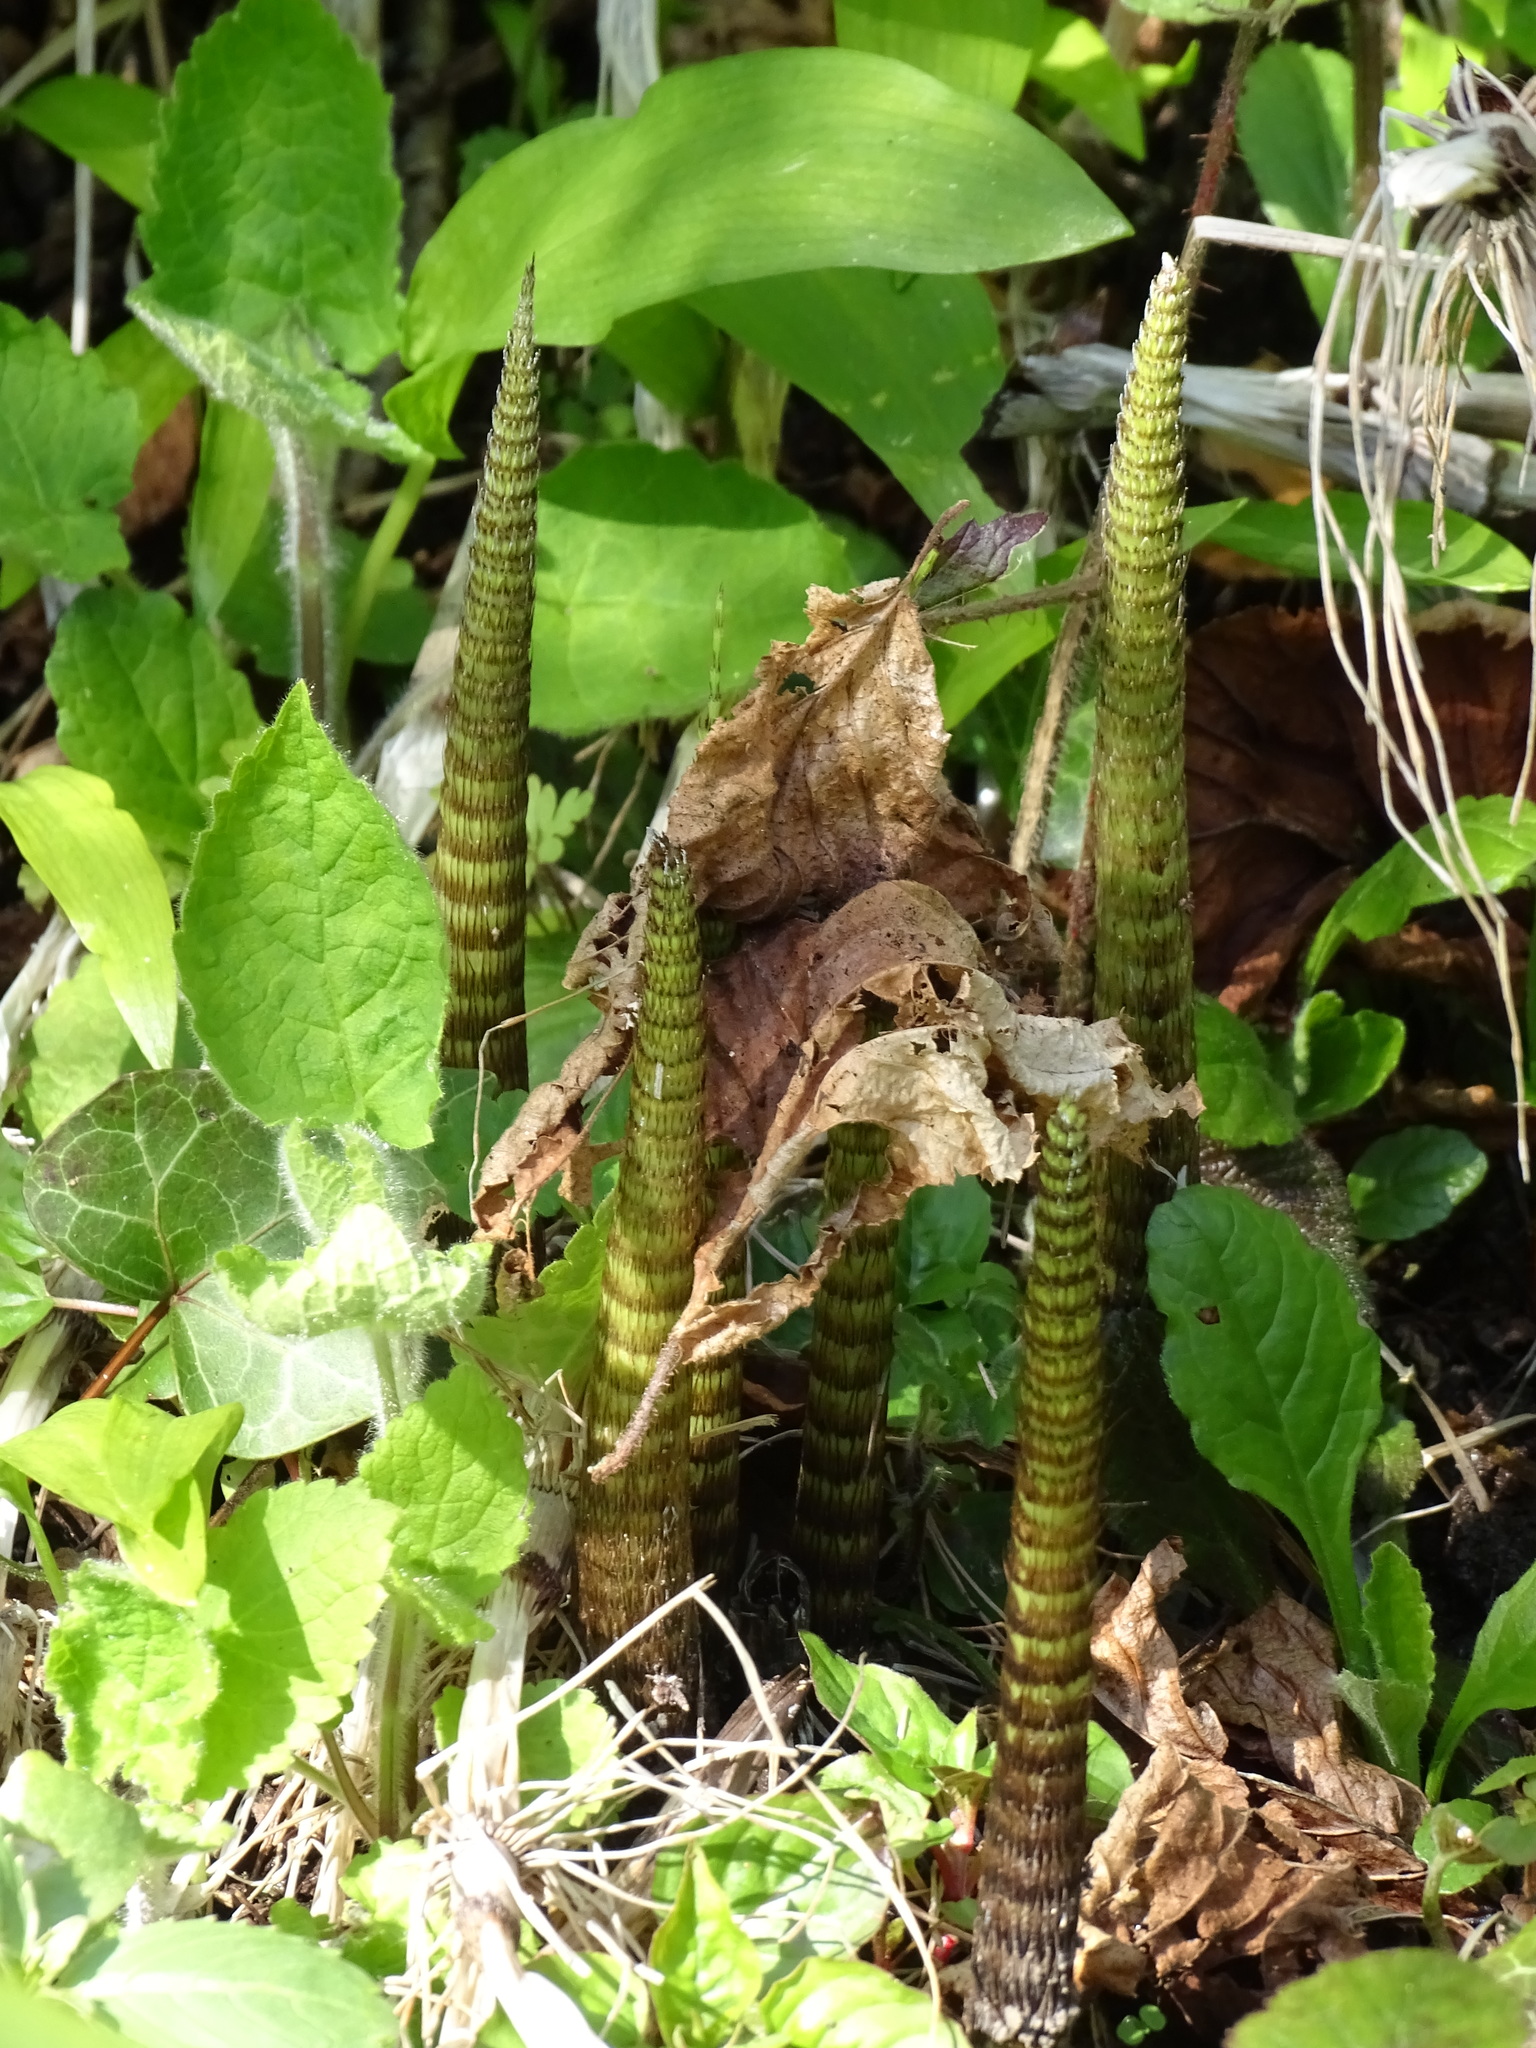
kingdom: Plantae
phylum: Tracheophyta
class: Polypodiopsida
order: Equisetales
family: Equisetaceae
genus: Equisetum
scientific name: Equisetum telmateia
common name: Great horsetail
